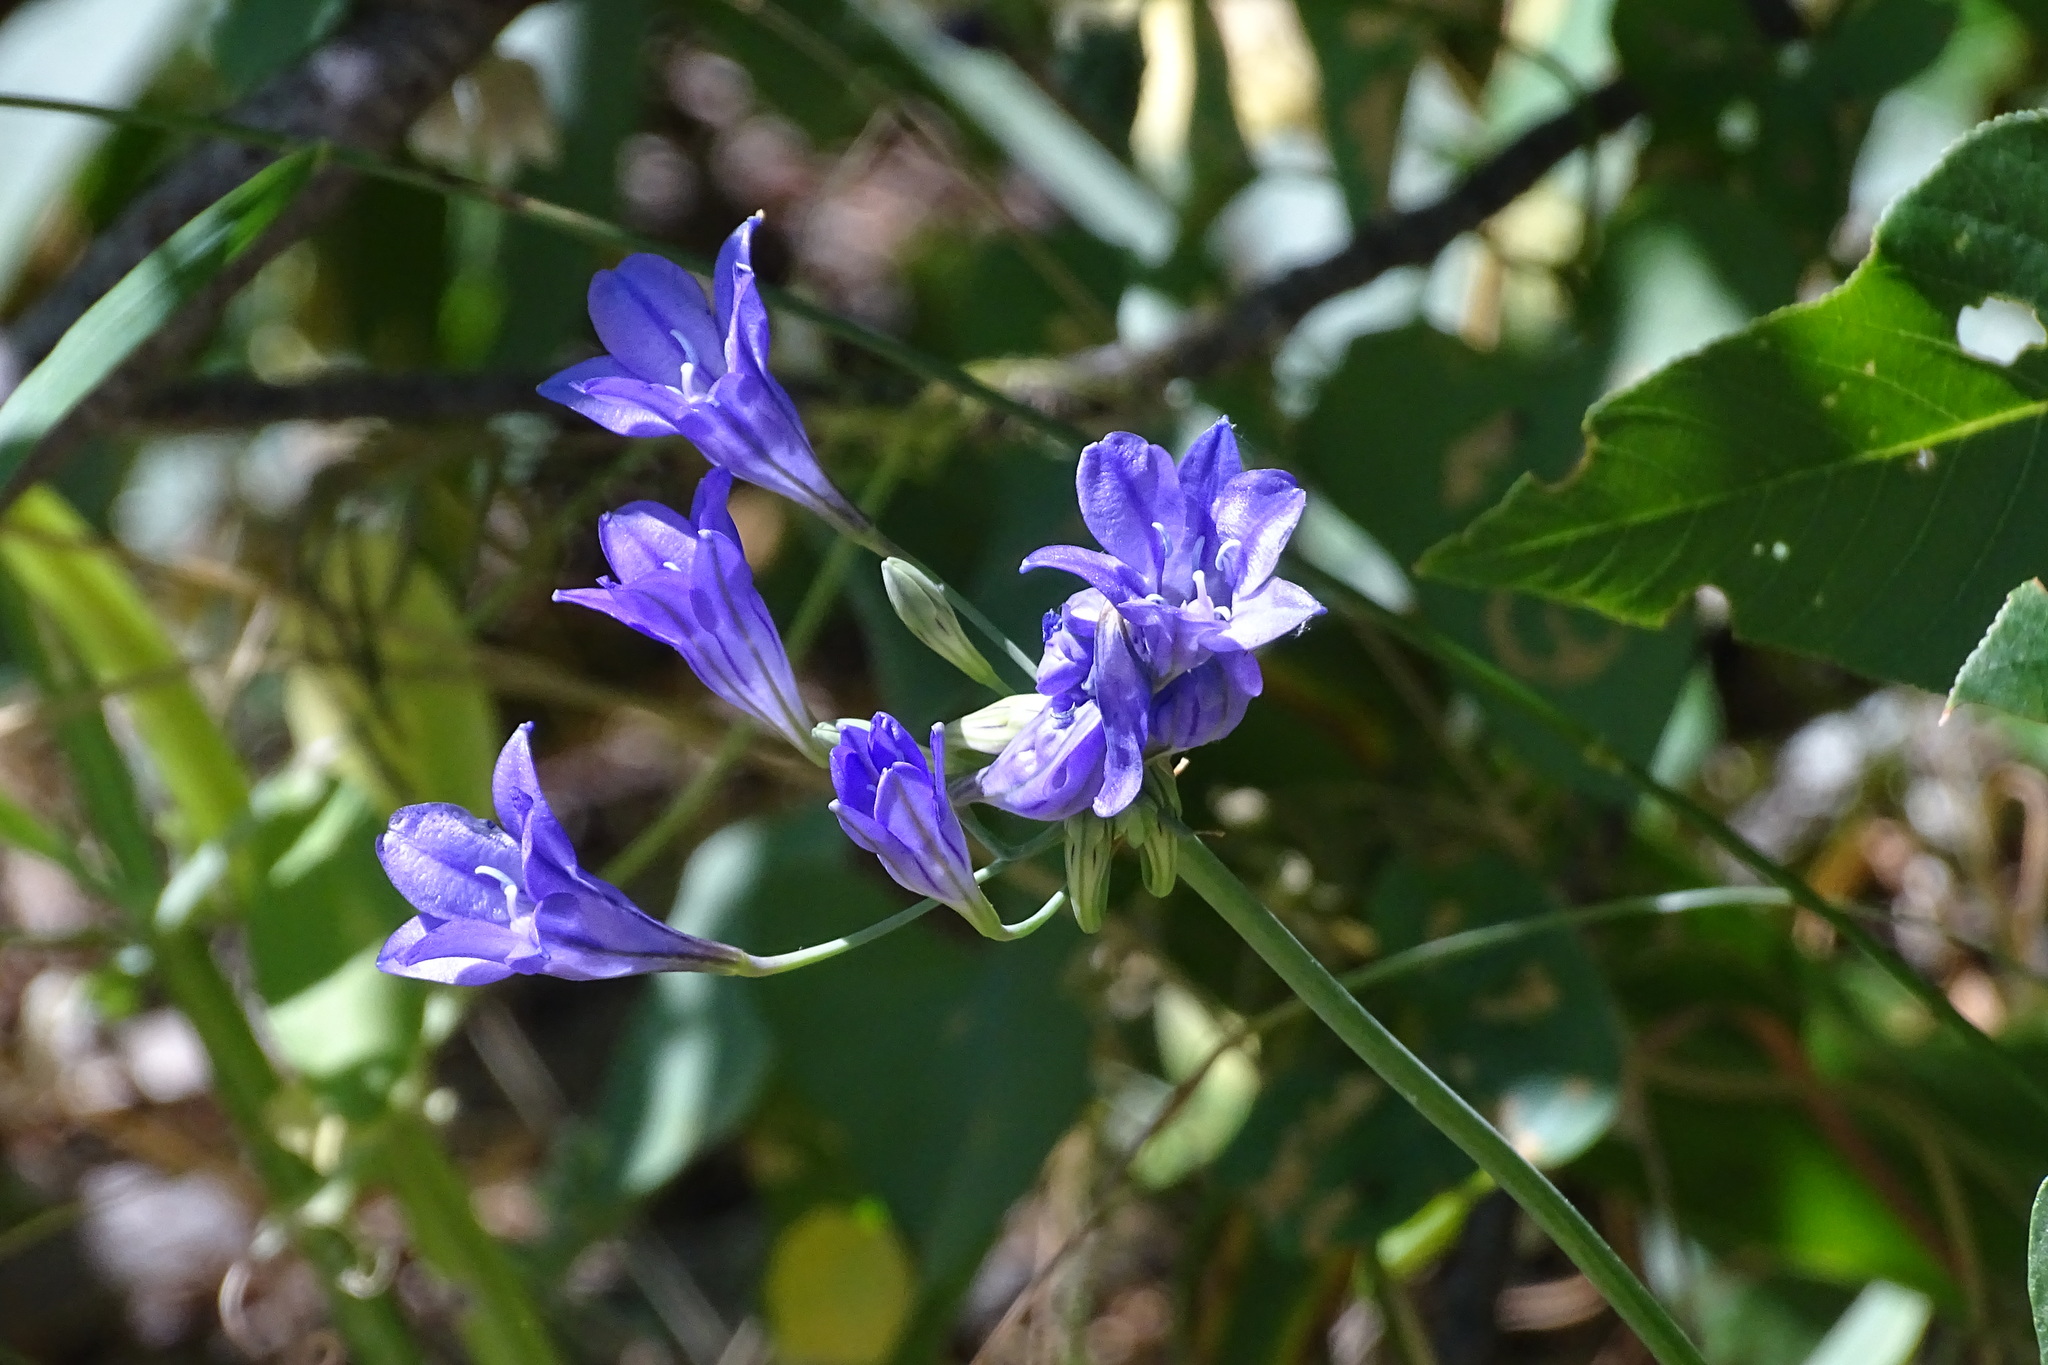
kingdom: Plantae
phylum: Tracheophyta
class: Liliopsida
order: Asparagales
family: Asparagaceae
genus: Triteleia
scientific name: Triteleia laxa
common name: Triplet-lily
